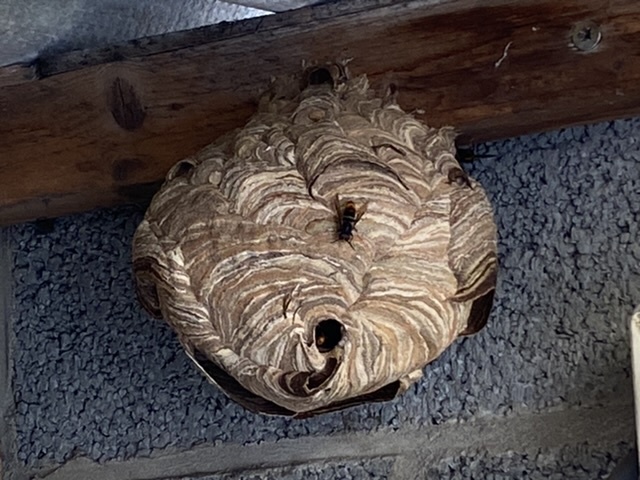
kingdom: Animalia
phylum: Arthropoda
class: Insecta
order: Hymenoptera
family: Vespidae
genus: Vespa
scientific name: Vespa velutina
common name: Asian hornet
